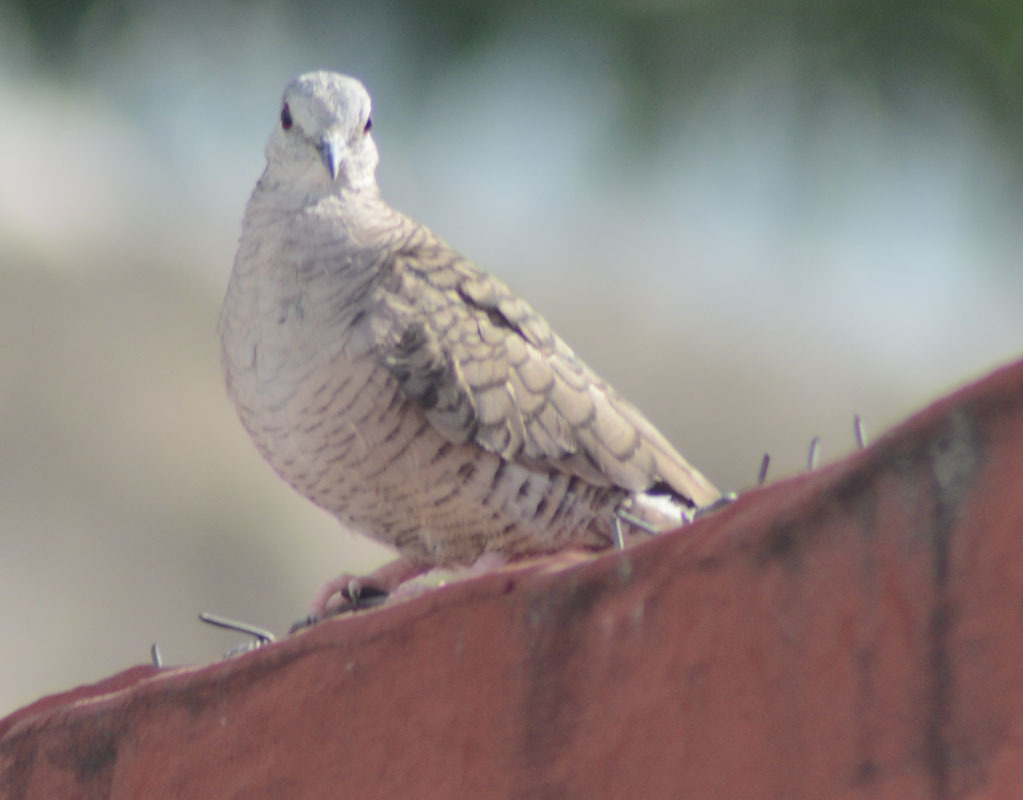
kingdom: Animalia
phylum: Chordata
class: Aves
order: Columbiformes
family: Columbidae
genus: Columbina
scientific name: Columbina inca
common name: Inca dove
